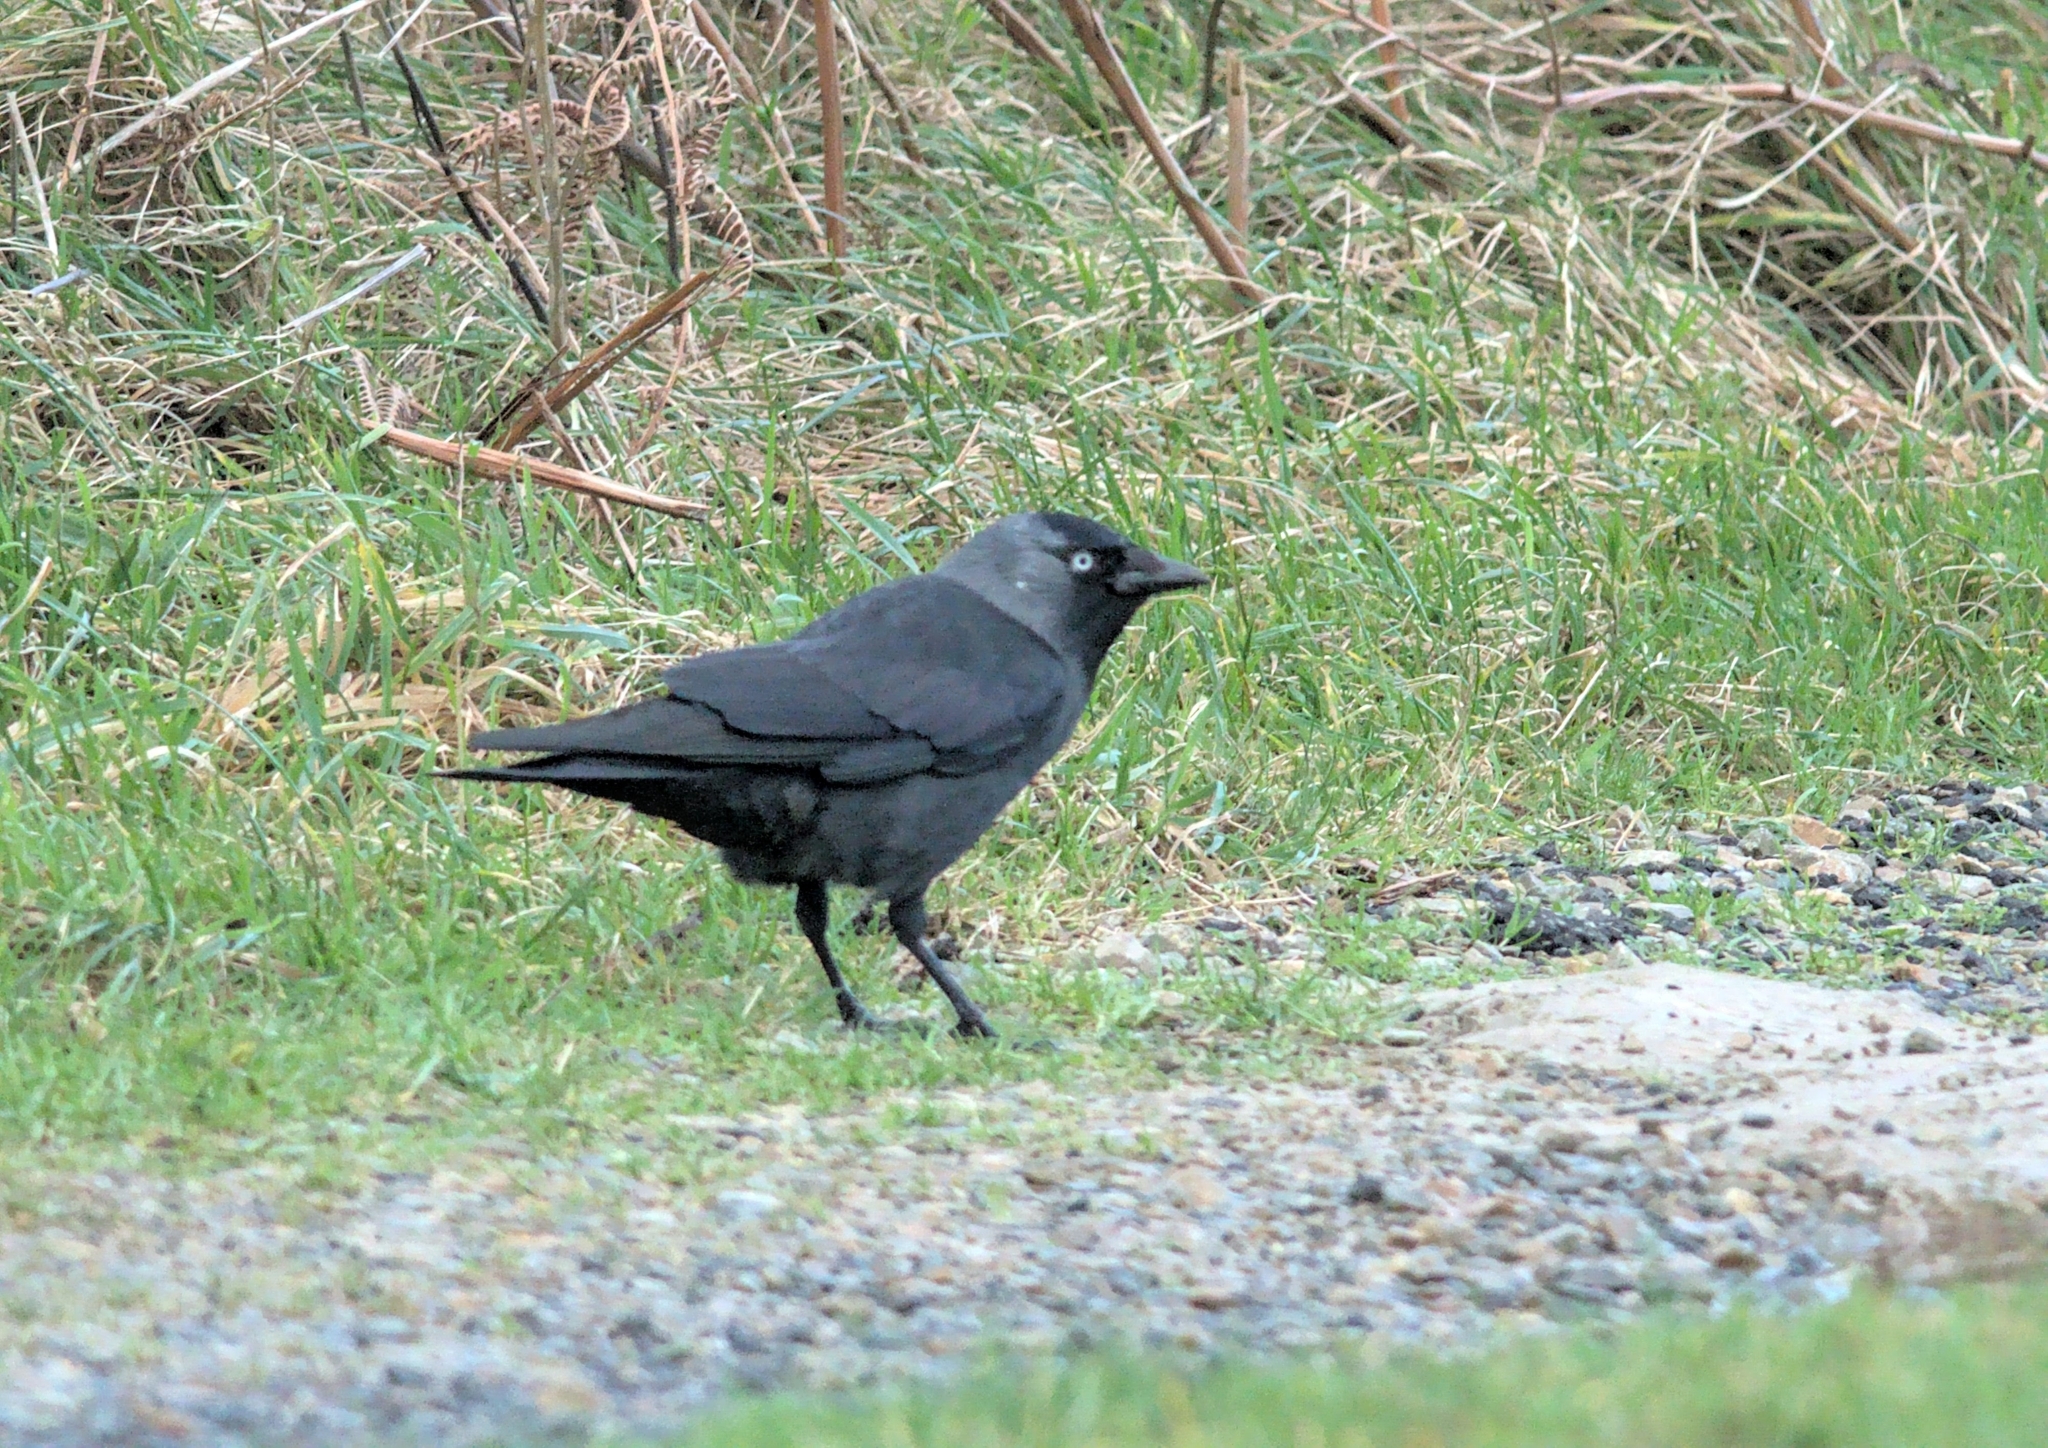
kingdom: Animalia
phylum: Chordata
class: Aves
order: Passeriformes
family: Corvidae
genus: Coloeus
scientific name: Coloeus monedula
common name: Western jackdaw
